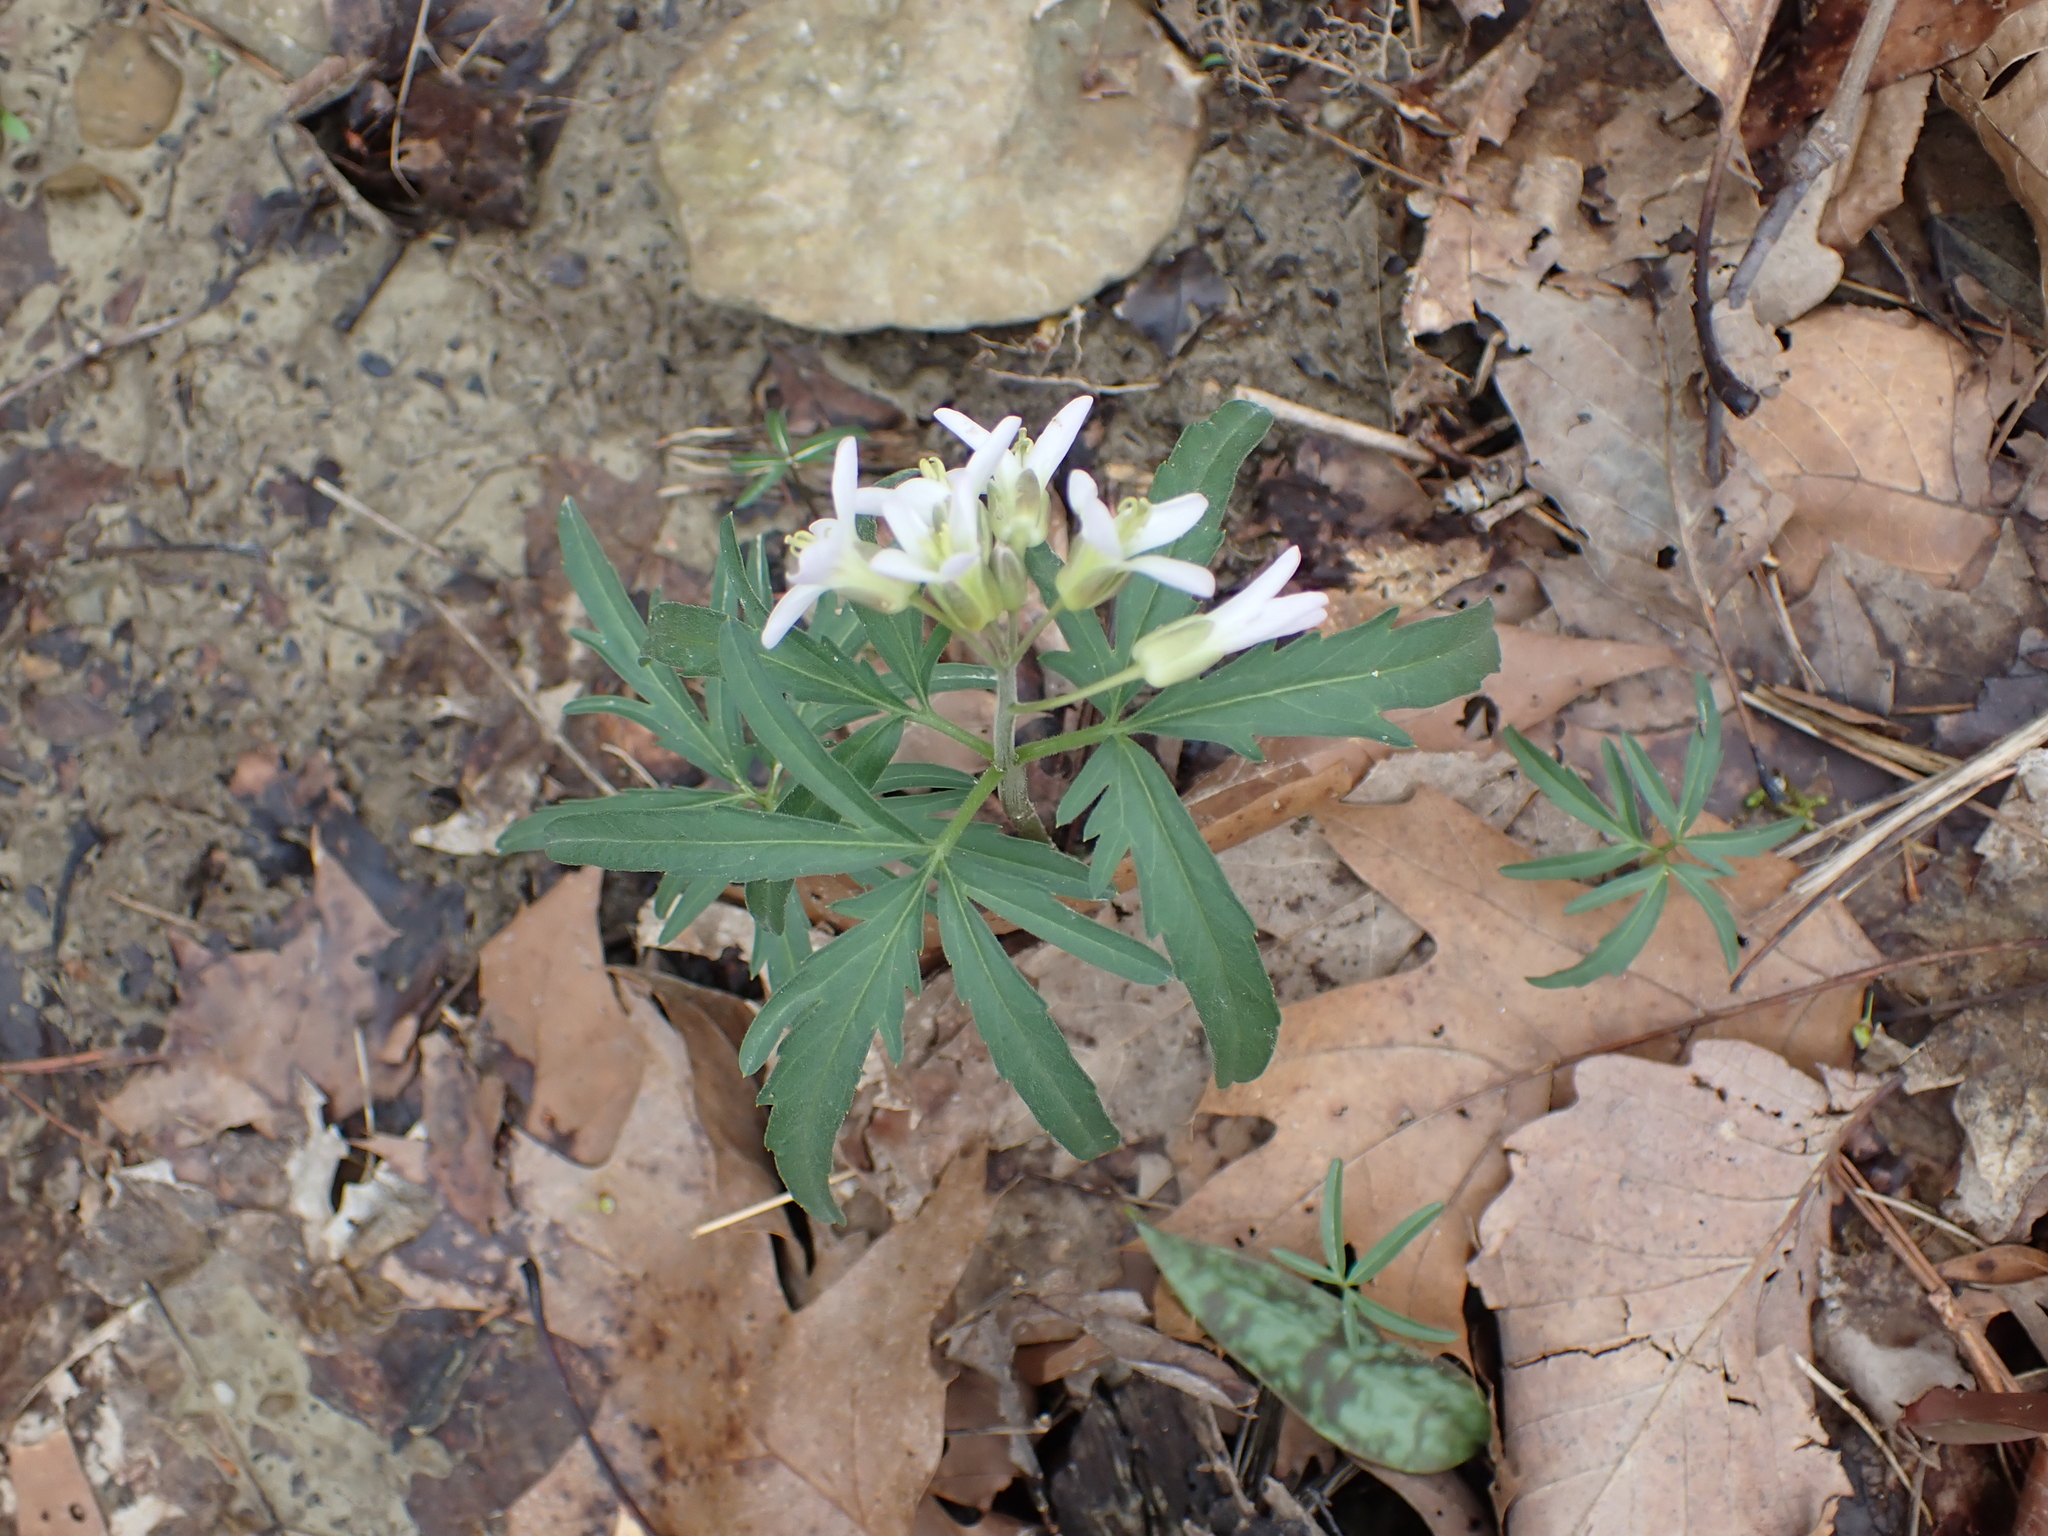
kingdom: Plantae
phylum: Tracheophyta
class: Magnoliopsida
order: Brassicales
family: Brassicaceae
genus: Cardamine
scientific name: Cardamine concatenata
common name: Cut-leaf toothcup
